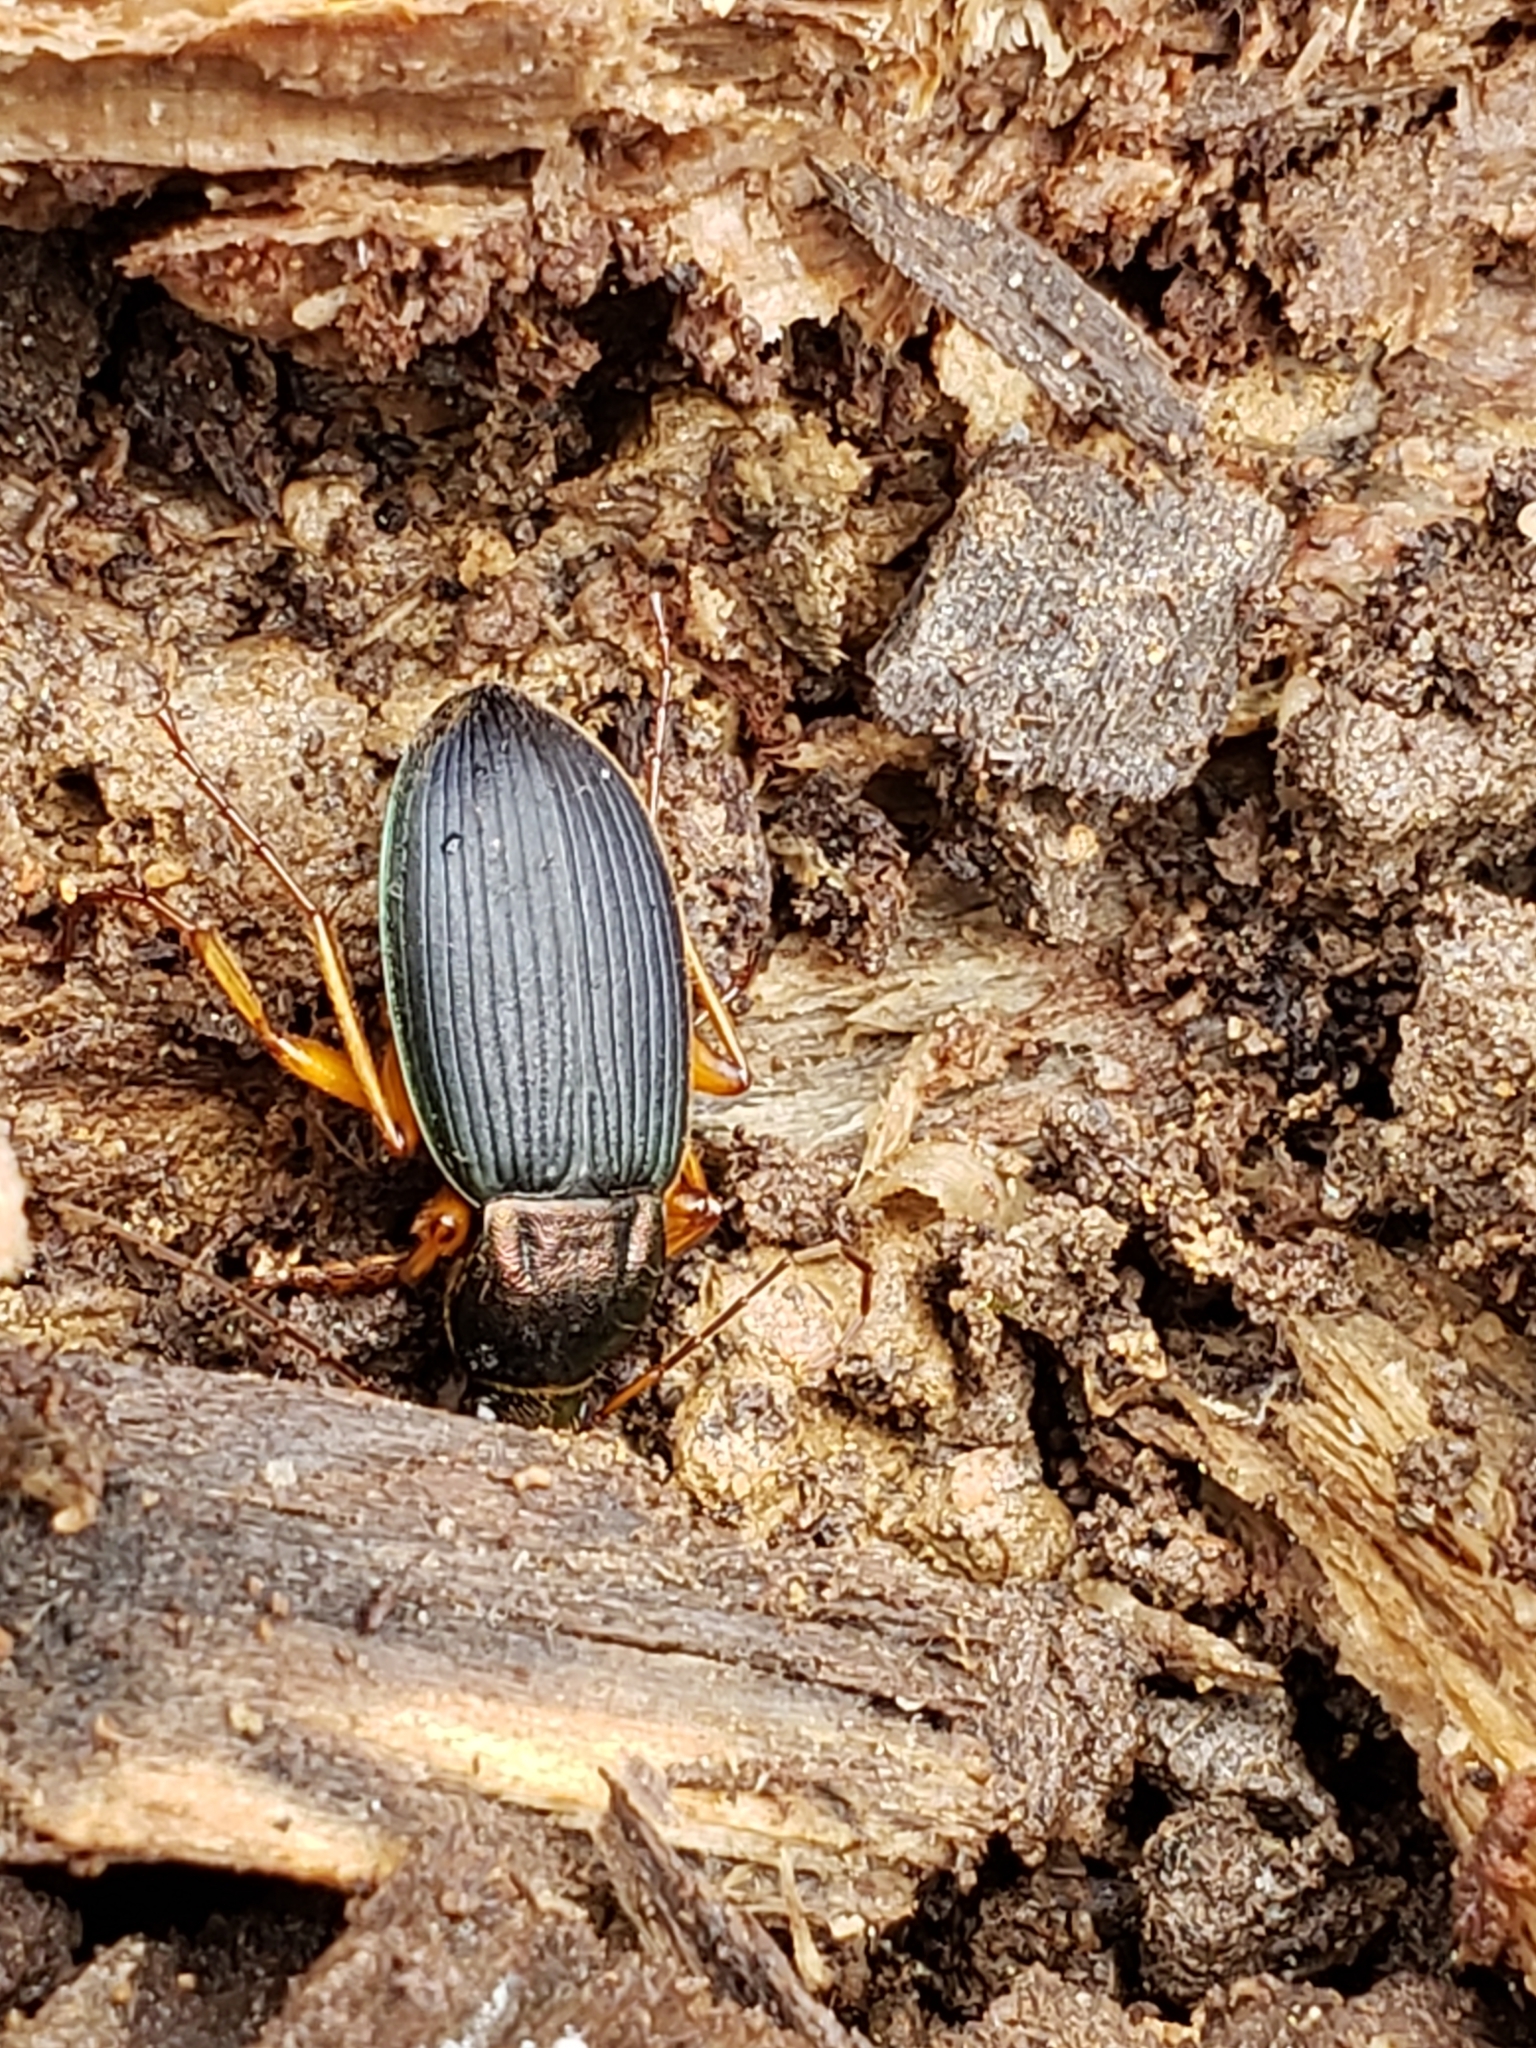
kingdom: Animalia
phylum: Arthropoda
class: Insecta
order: Coleoptera
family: Carabidae
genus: Chlaenius
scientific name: Chlaenius aestivus
